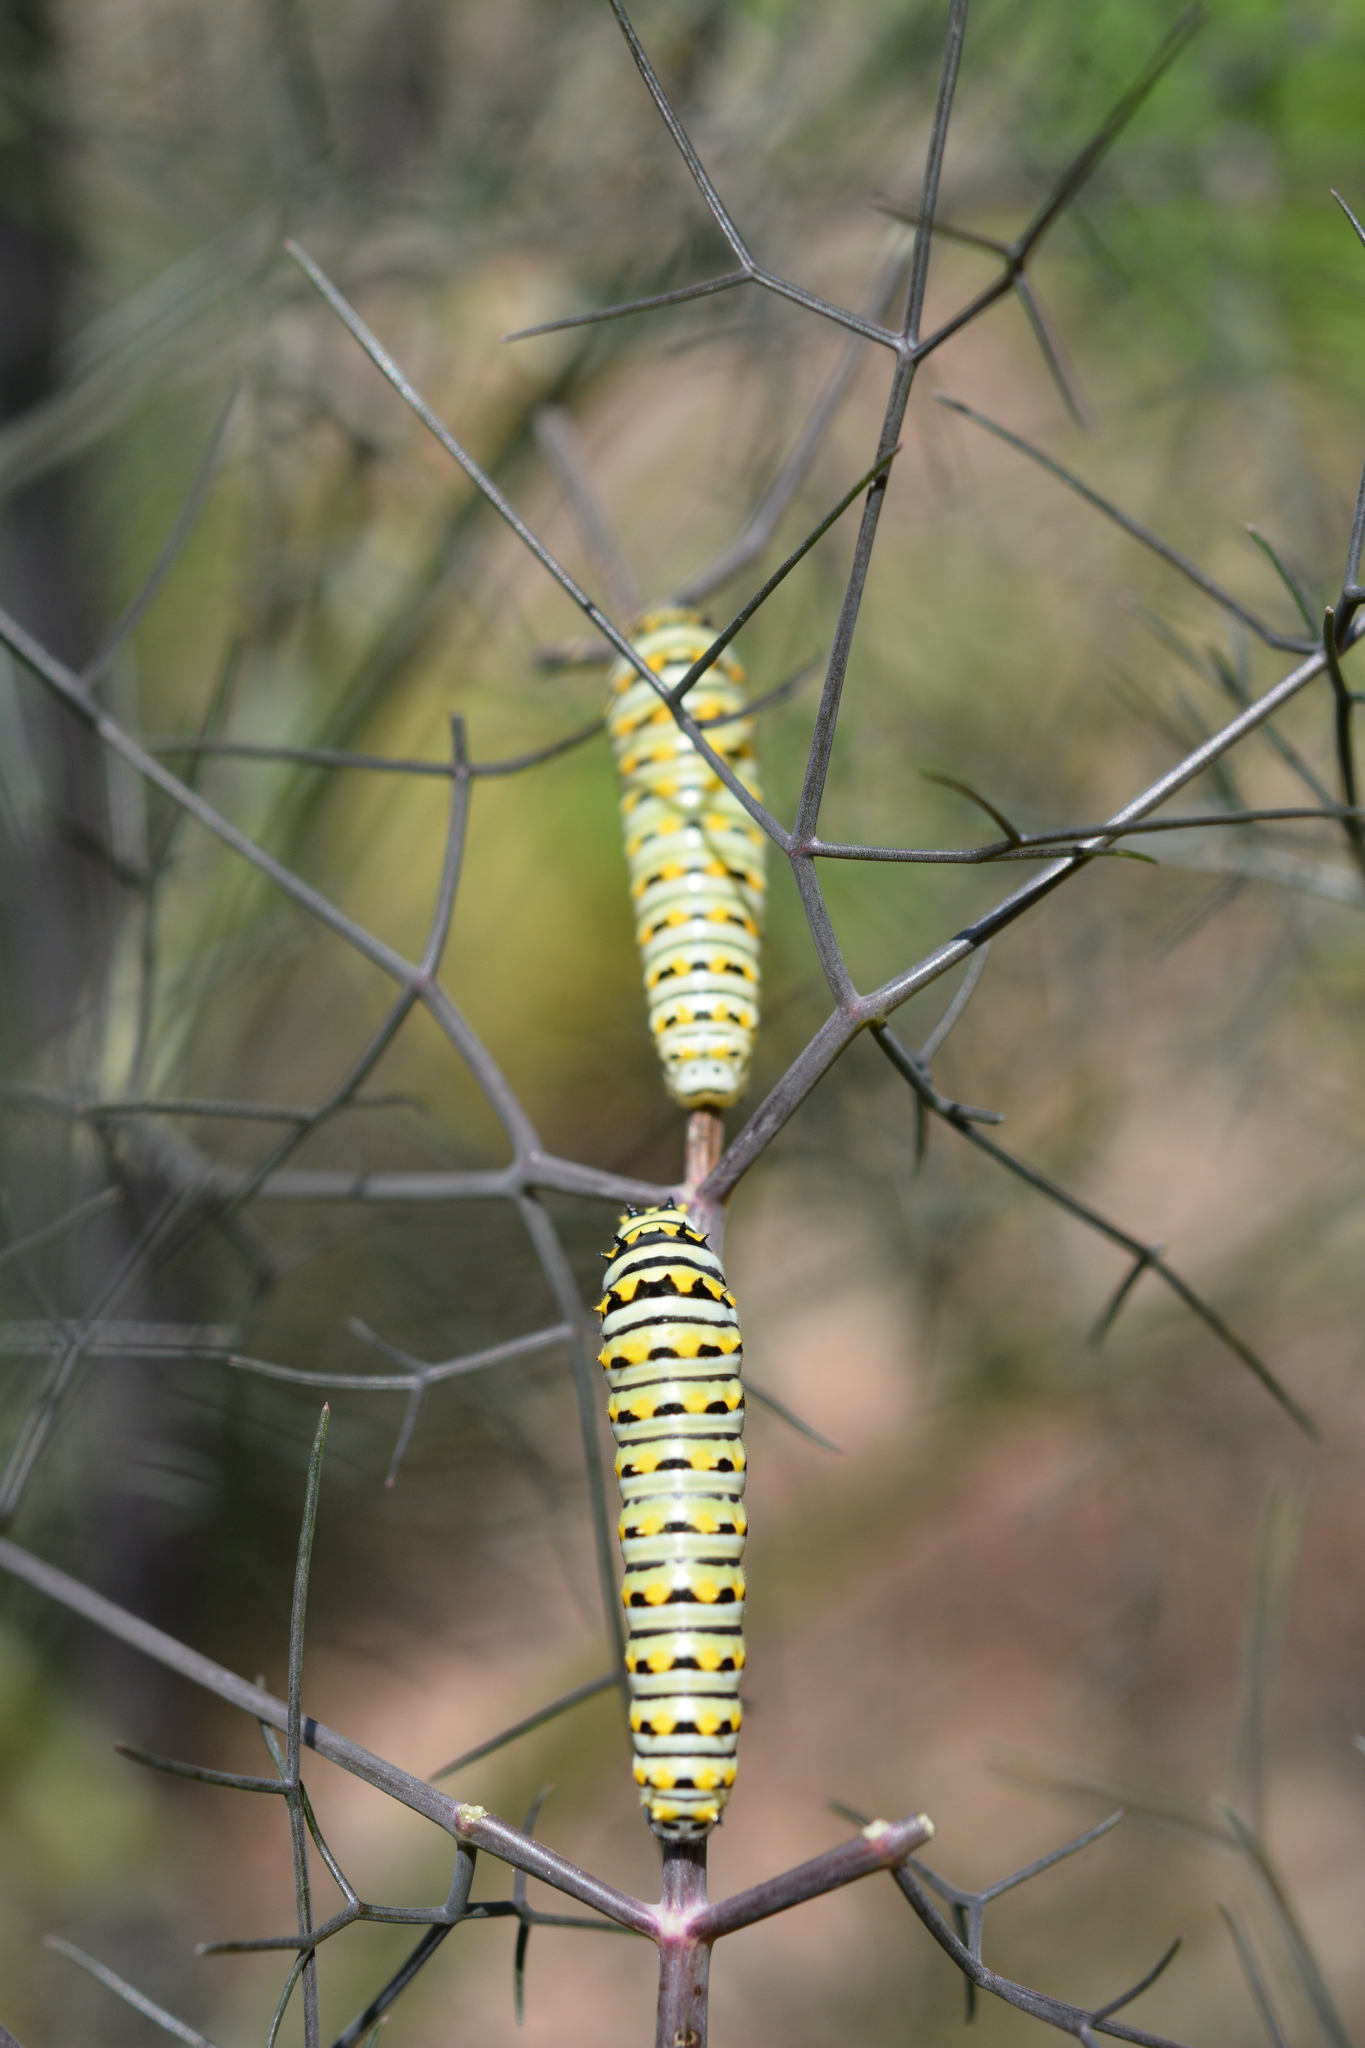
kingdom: Animalia
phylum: Arthropoda
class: Insecta
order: Lepidoptera
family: Papilionidae
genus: Papilio
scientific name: Papilio polyxenes
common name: Black swallowtail
